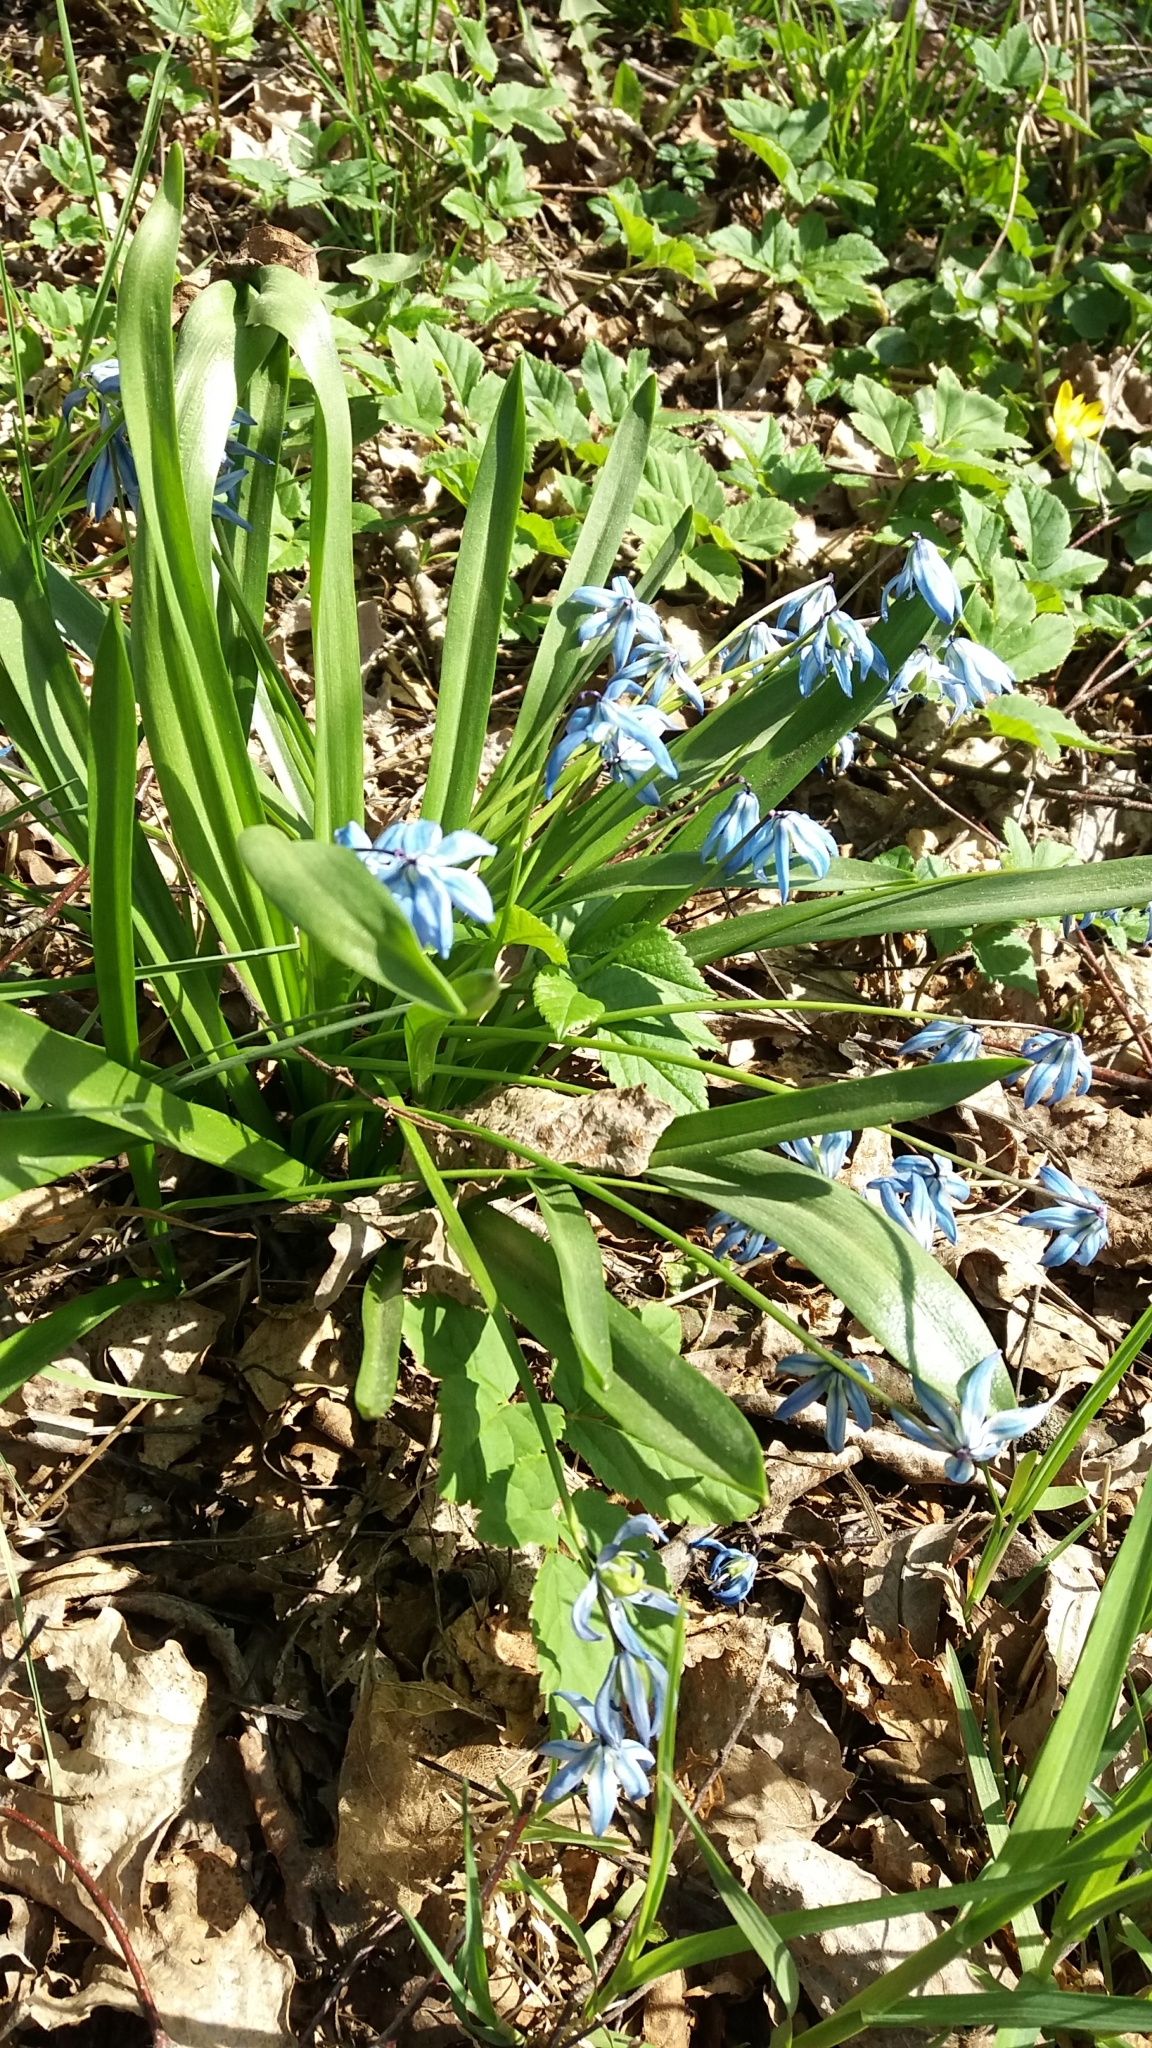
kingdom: Plantae
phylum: Tracheophyta
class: Liliopsida
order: Asparagales
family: Asparagaceae
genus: Scilla
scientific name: Scilla siberica
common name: Siberian squill
